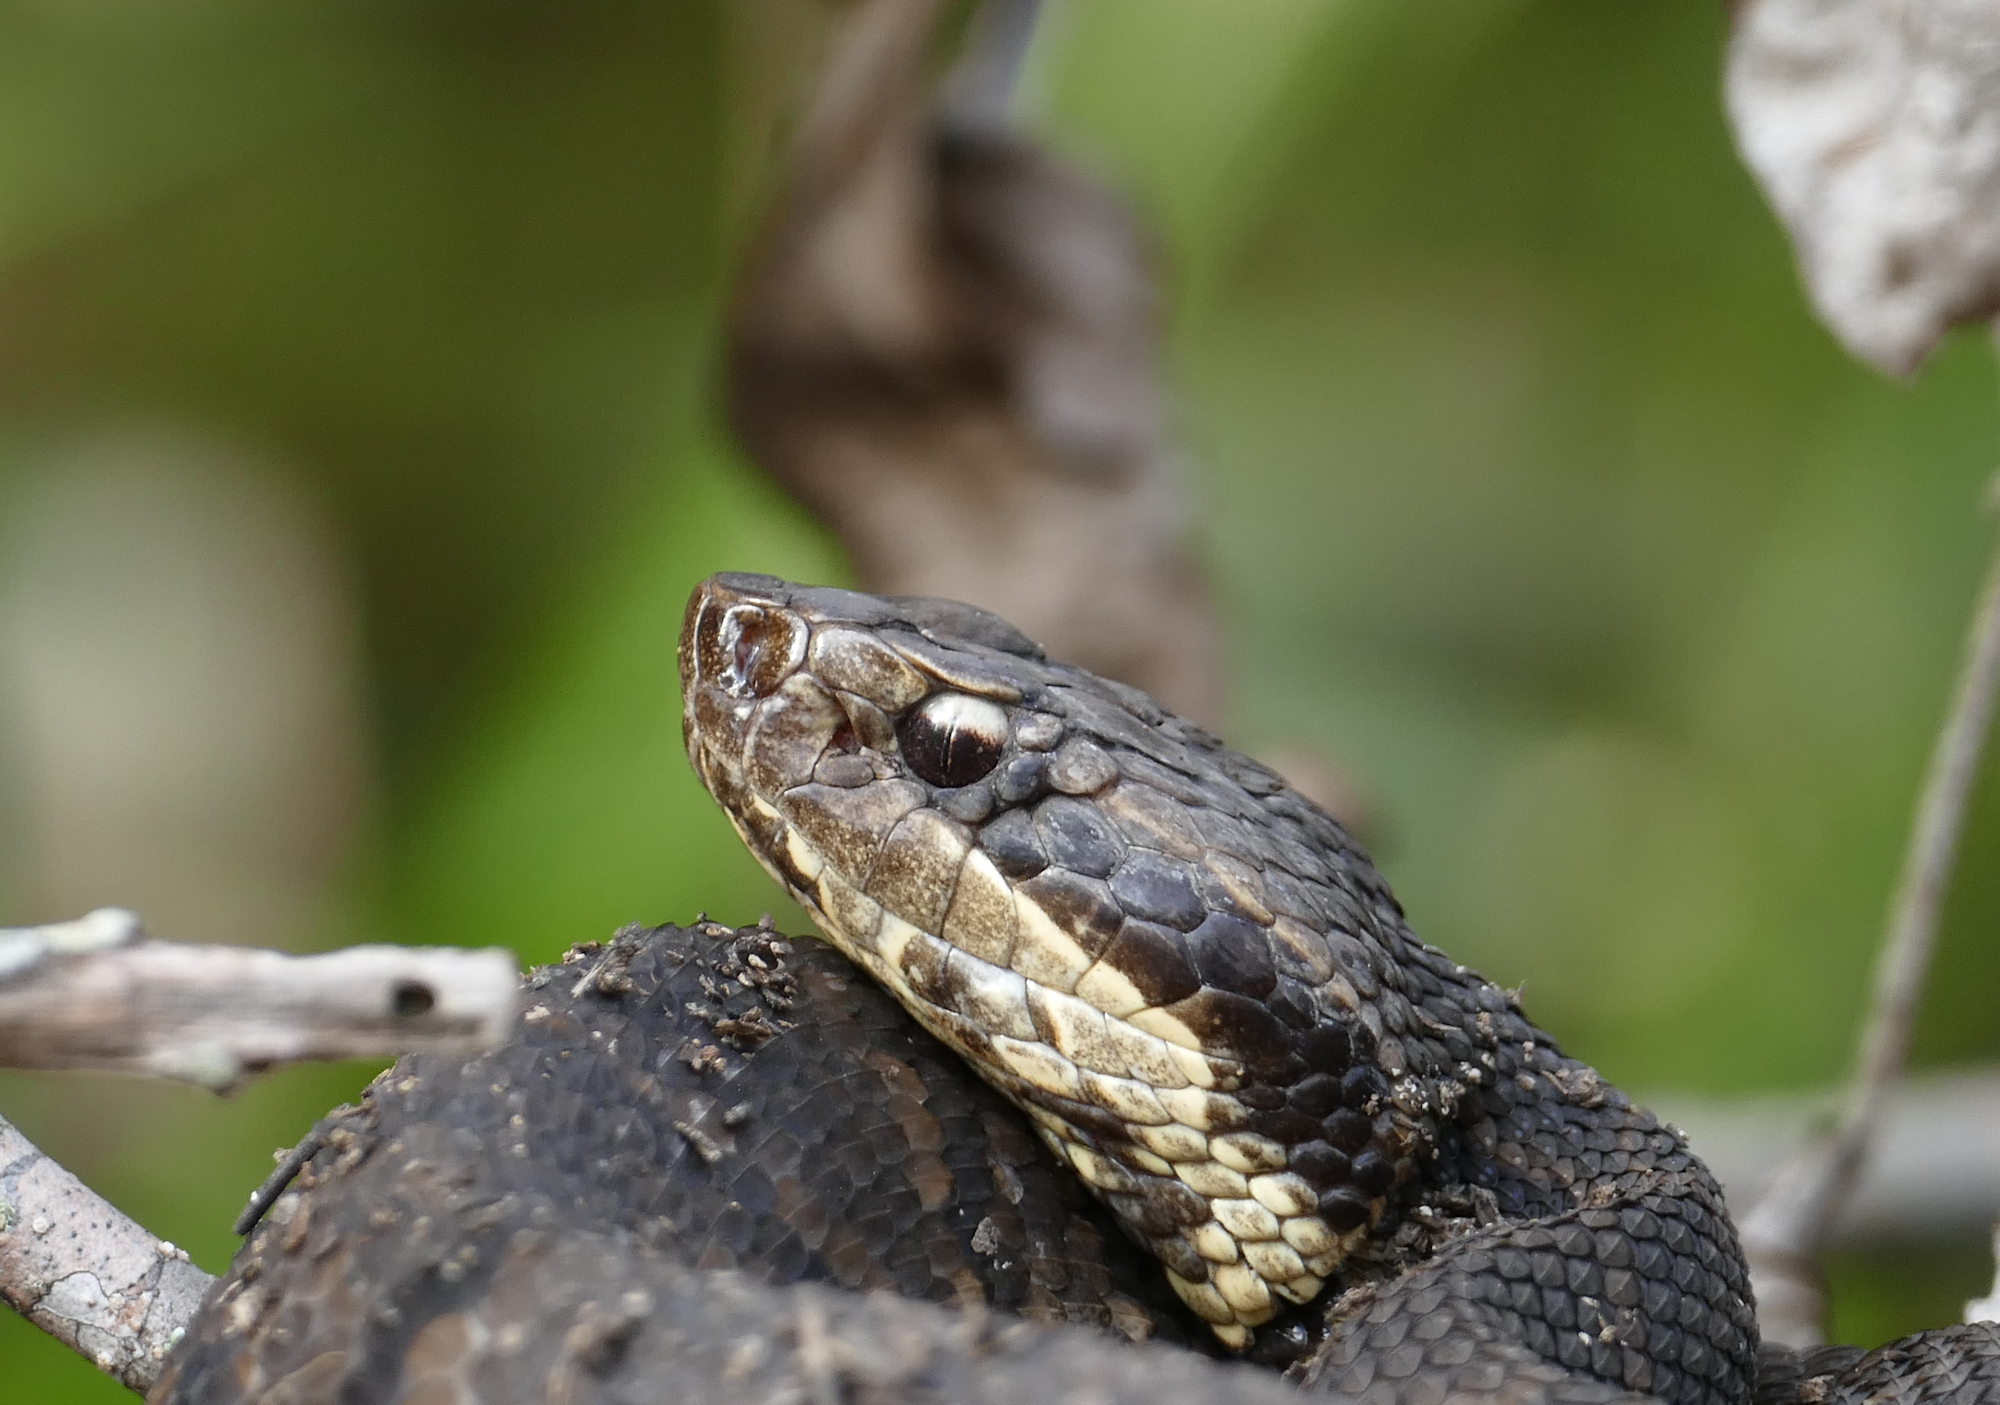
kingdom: Animalia
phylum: Chordata
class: Squamata
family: Viperidae
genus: Agkistrodon
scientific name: Agkistrodon piscivorus
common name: Cottonmouth
